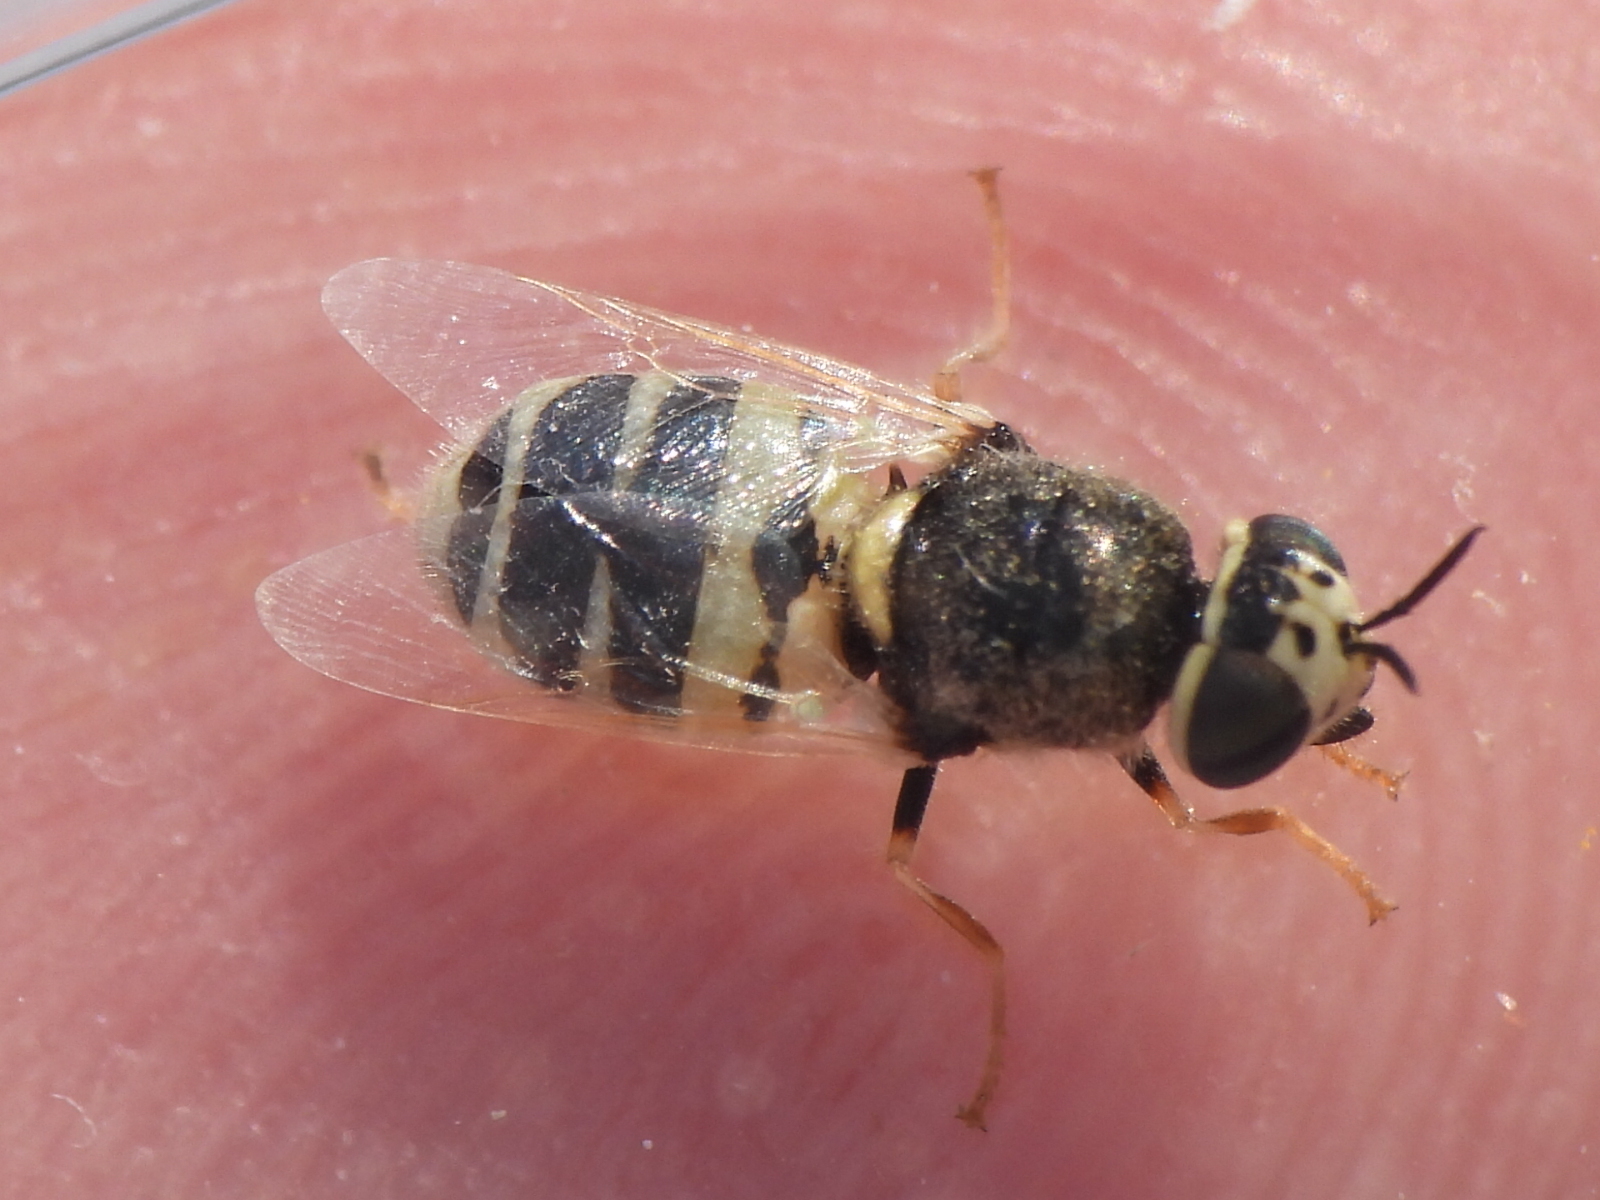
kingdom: Animalia
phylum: Arthropoda
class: Insecta
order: Diptera
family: Stratiomyidae
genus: Oplodontha
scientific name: Oplodontha pulchriceps
